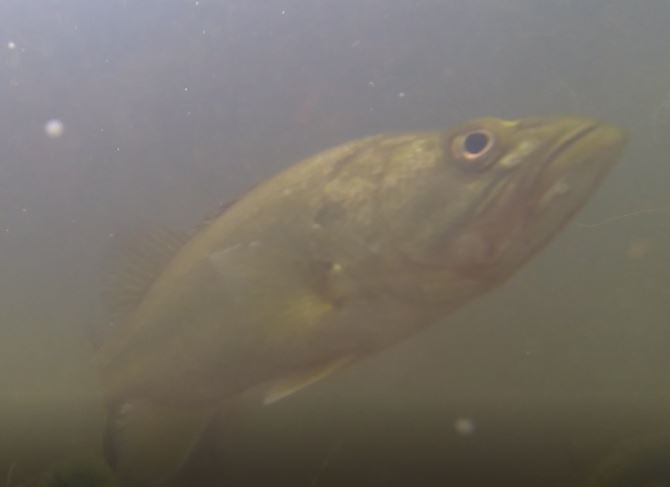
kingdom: Animalia
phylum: Chordata
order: Perciformes
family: Centrarchidae
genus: Micropterus
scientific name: Micropterus salmoides
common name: Largemouth bass
